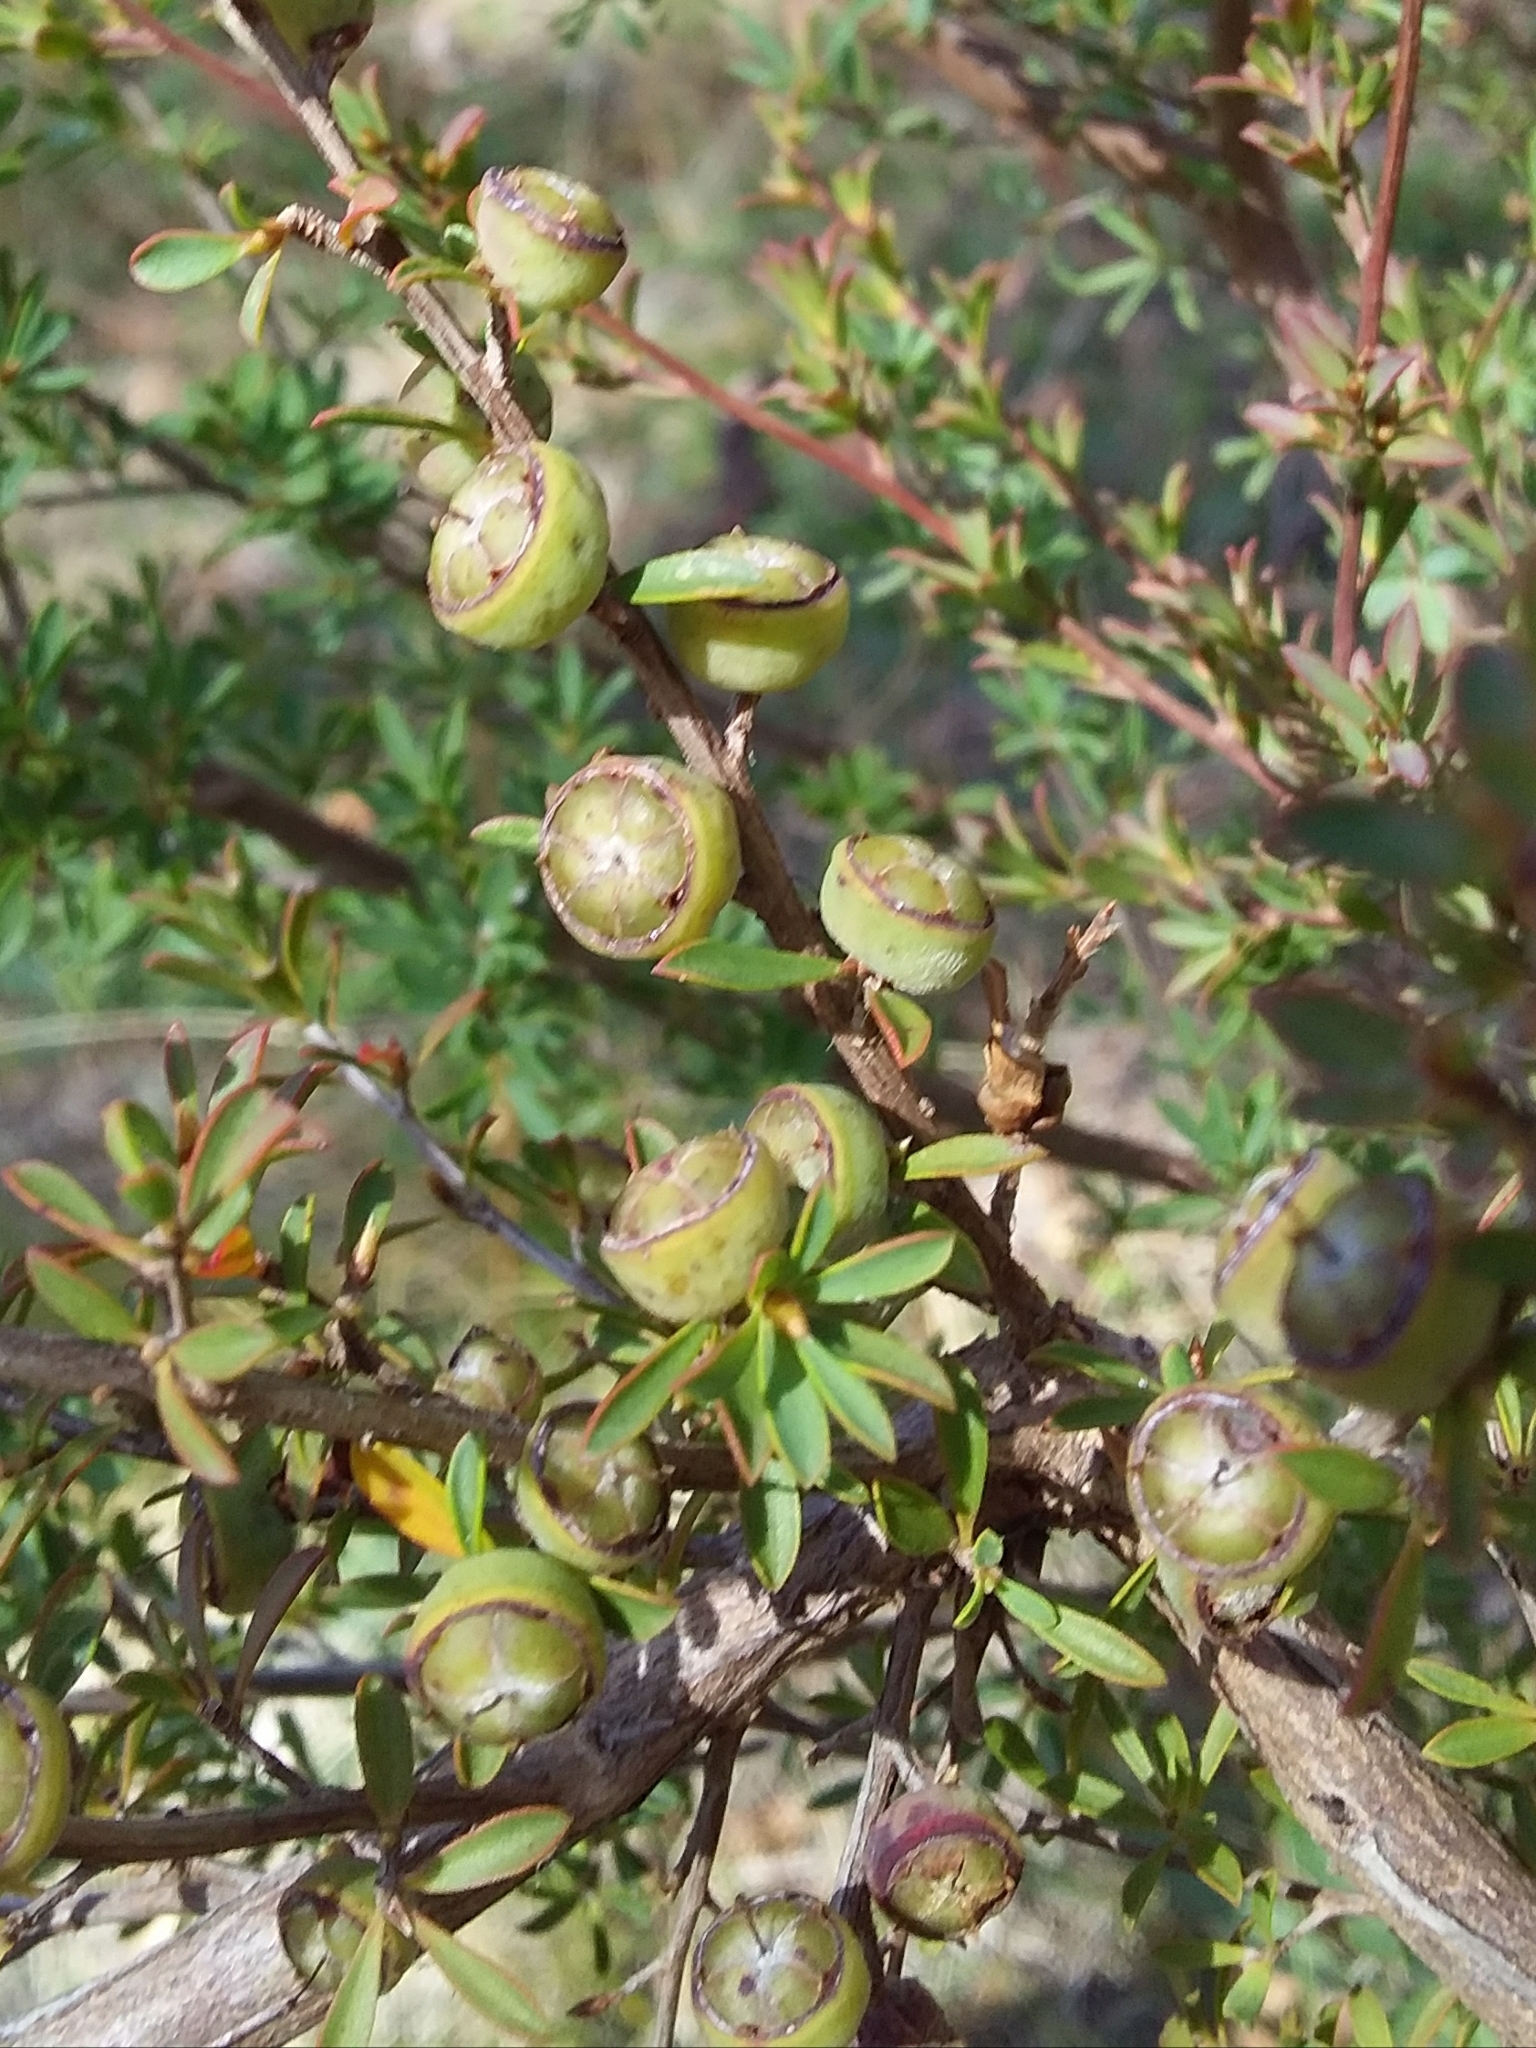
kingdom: Plantae
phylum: Tracheophyta
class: Magnoliopsida
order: Myrtales
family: Myrtaceae
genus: Leptospermum
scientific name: Leptospermum myrsinoides
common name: Heath teatree
